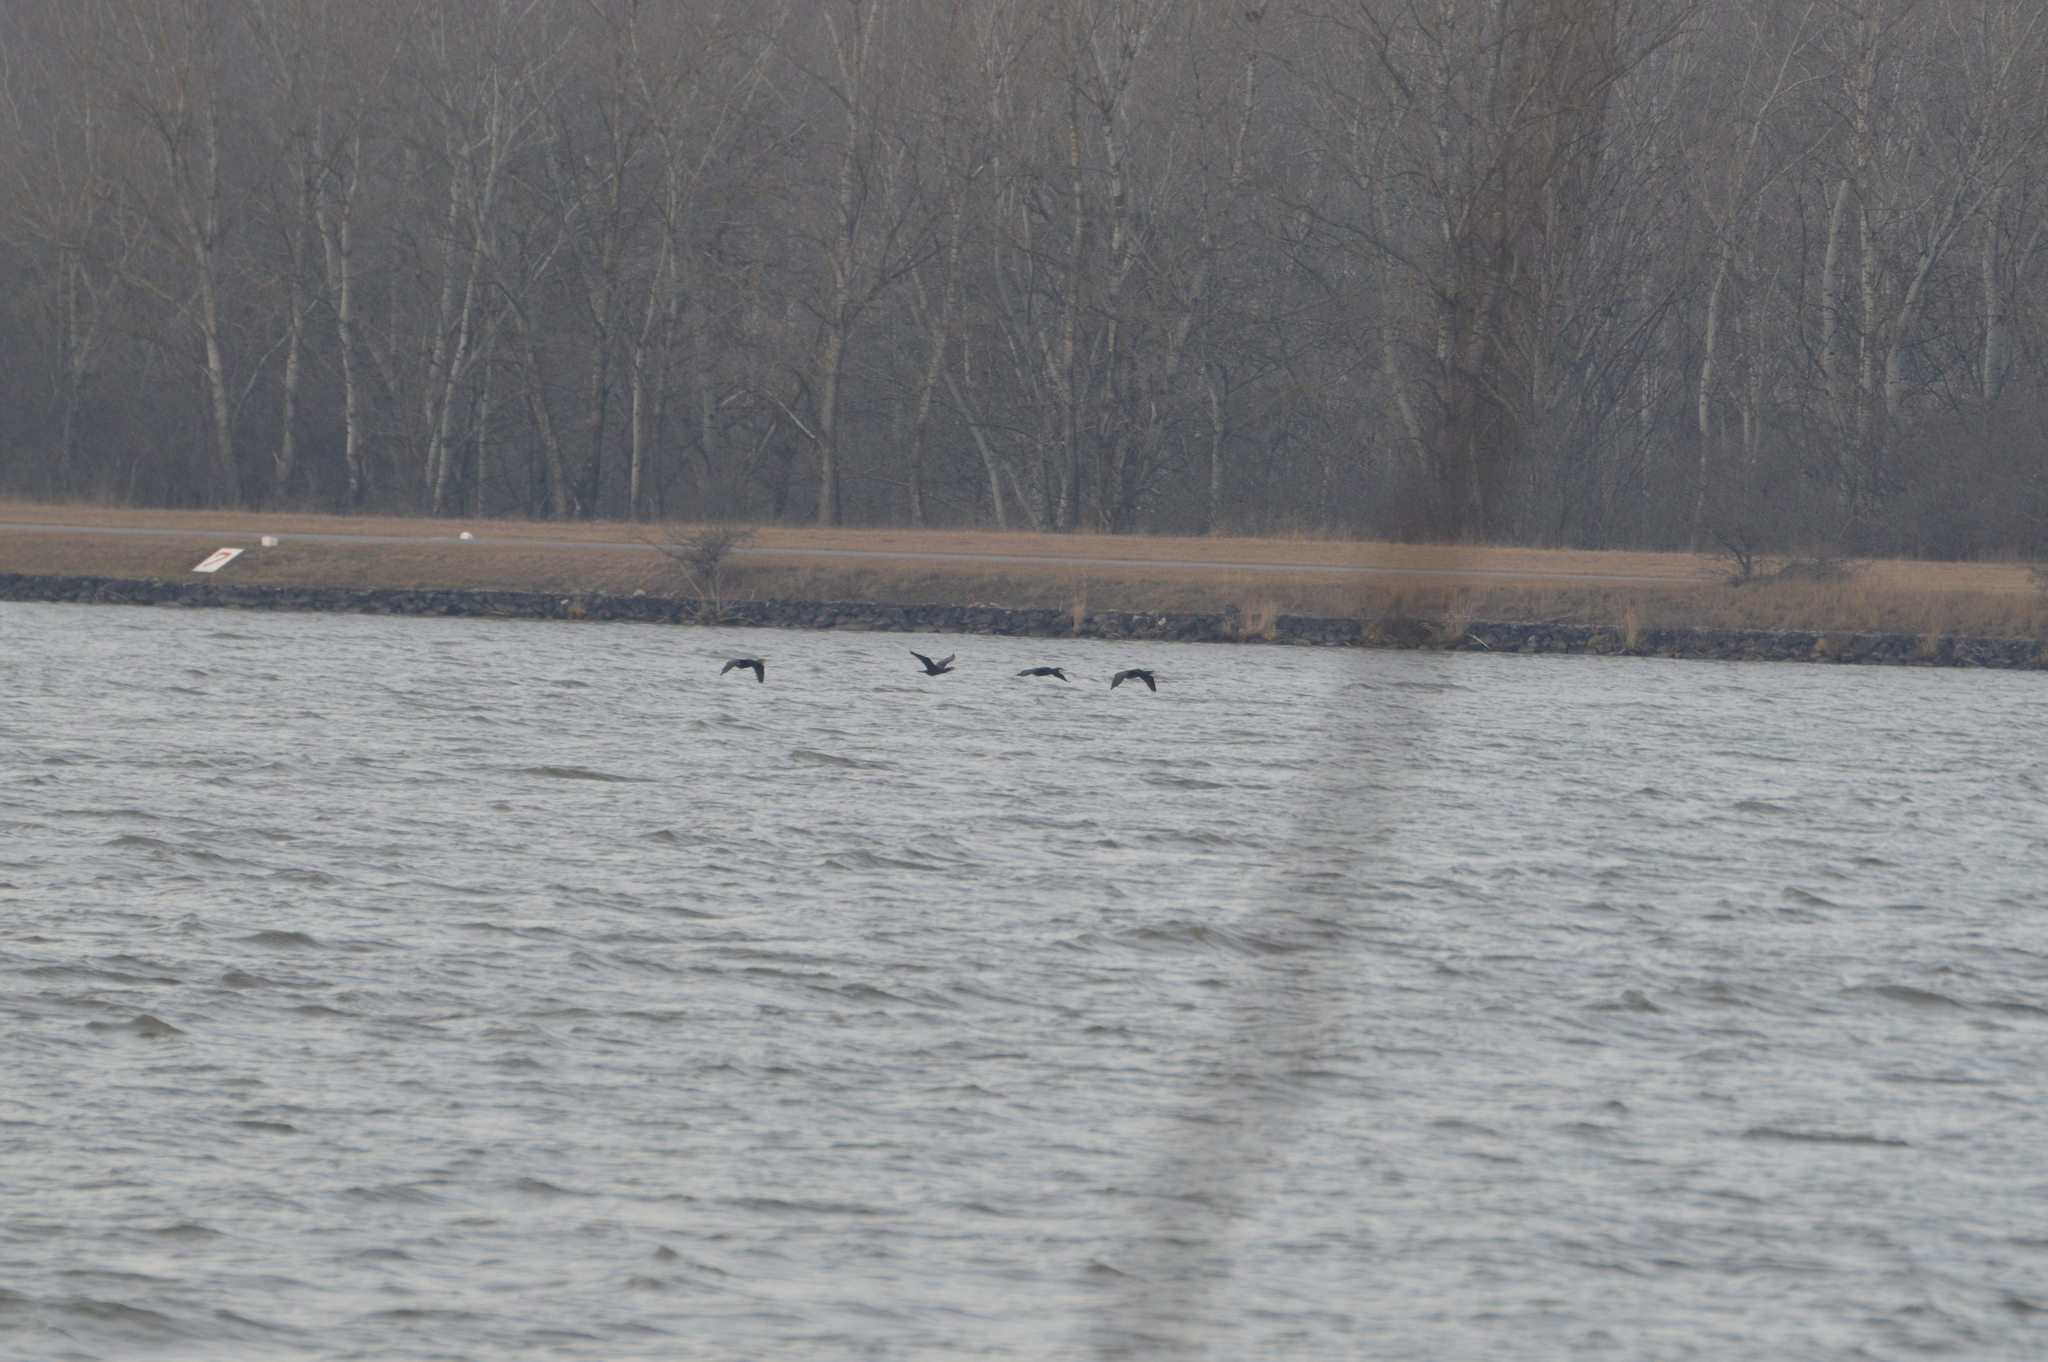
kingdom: Animalia
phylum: Chordata
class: Aves
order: Suliformes
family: Phalacrocoracidae
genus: Phalacrocorax
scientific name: Phalacrocorax carbo
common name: Great cormorant
